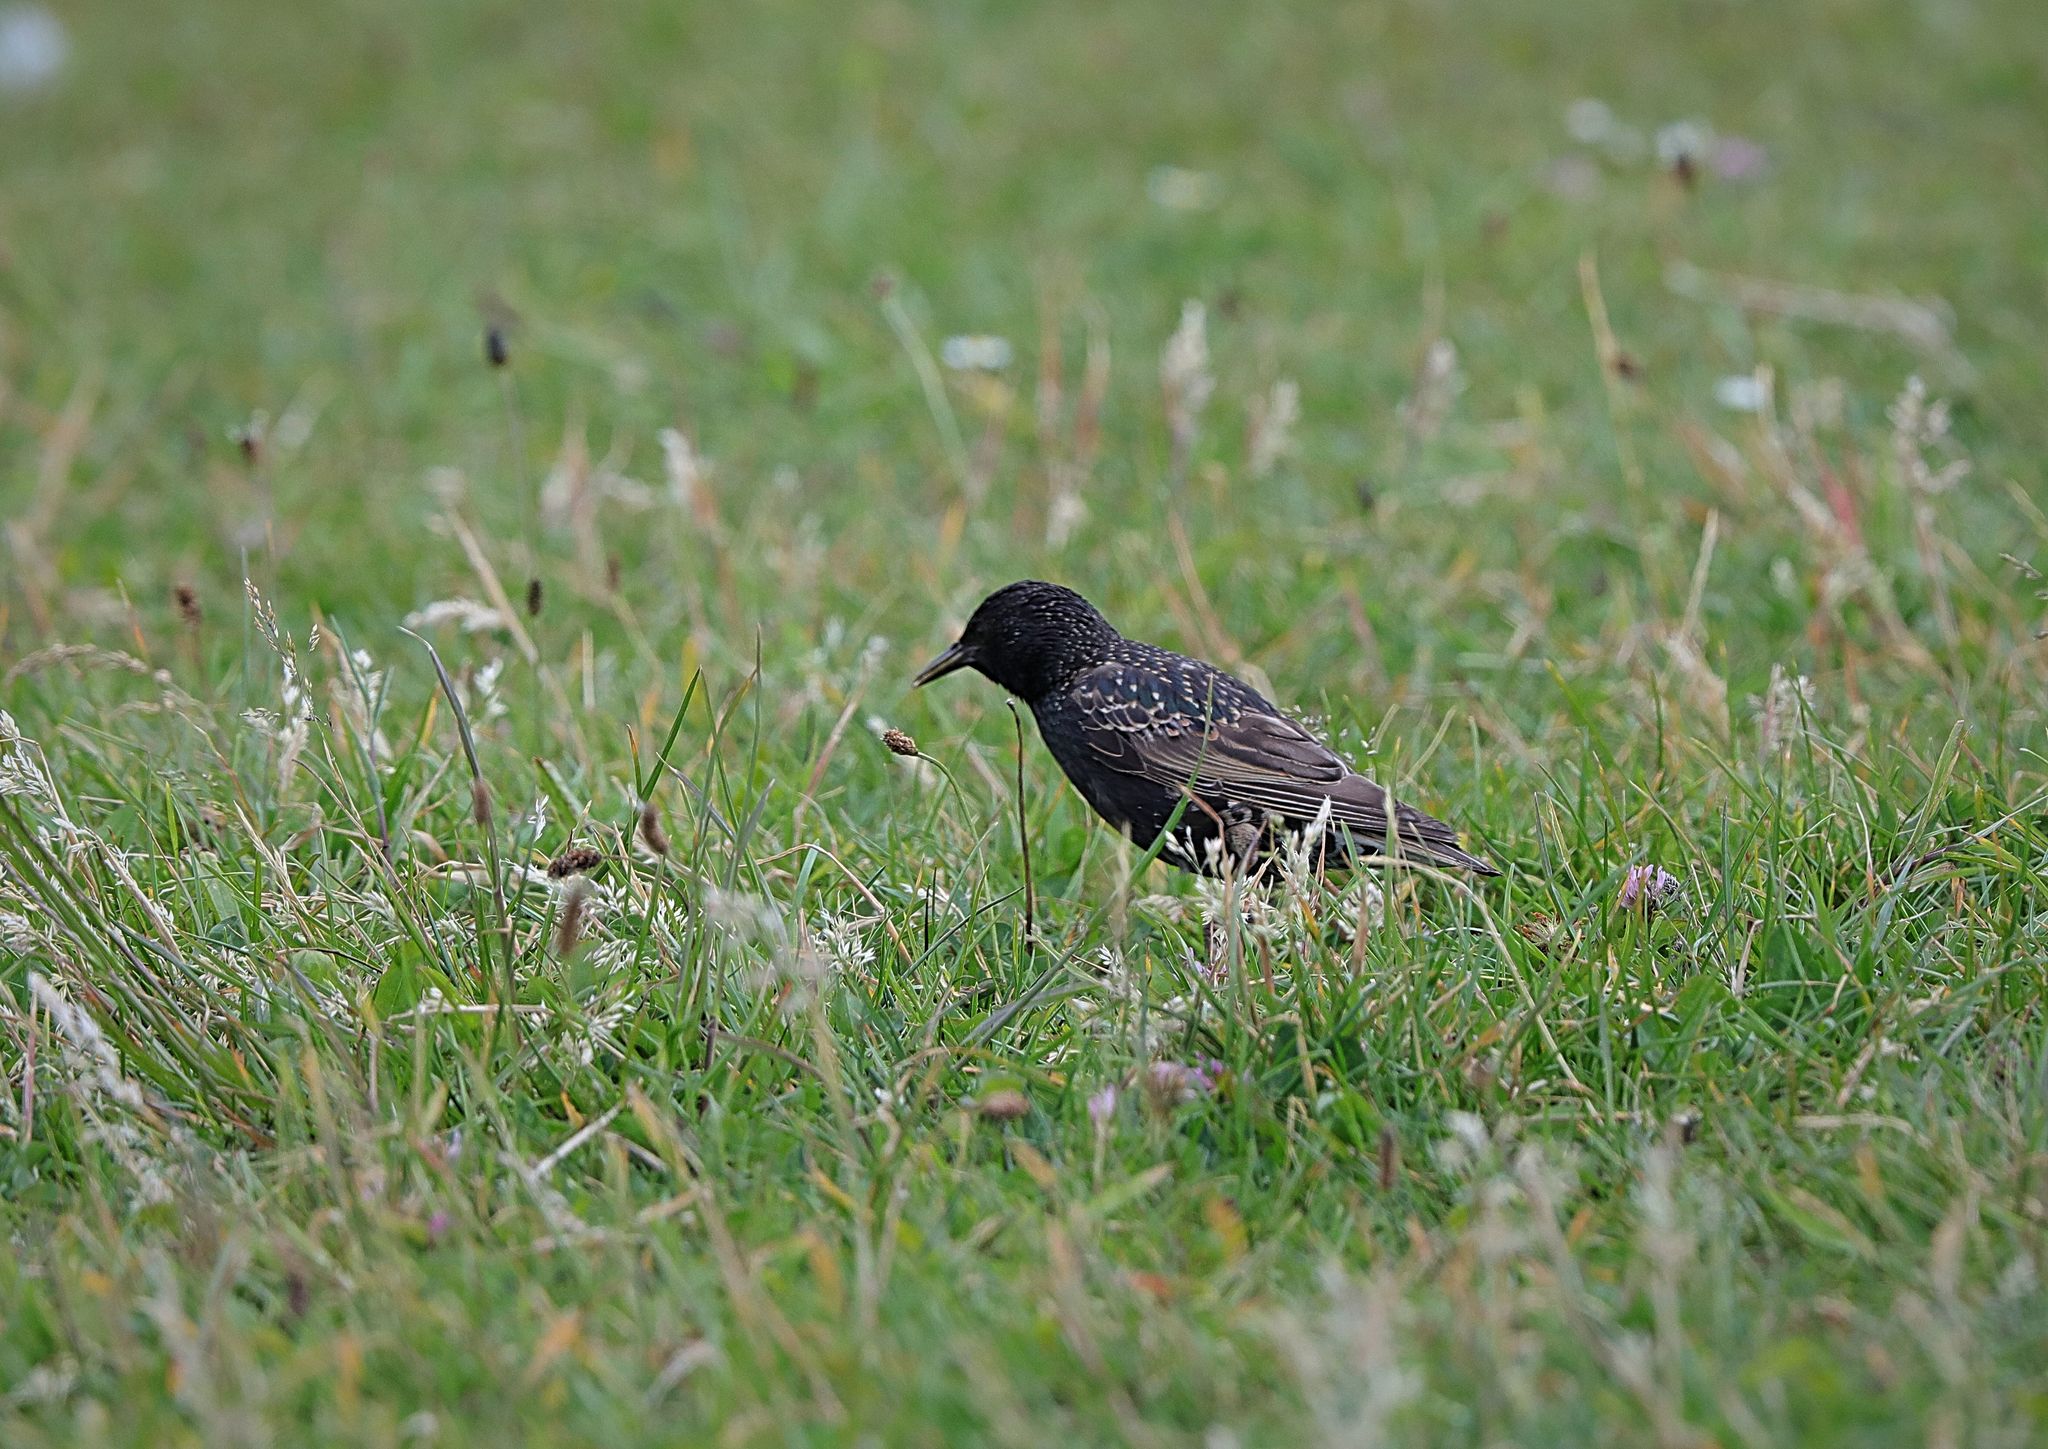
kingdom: Animalia
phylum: Chordata
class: Aves
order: Passeriformes
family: Sturnidae
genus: Sturnus
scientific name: Sturnus vulgaris
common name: Common starling
